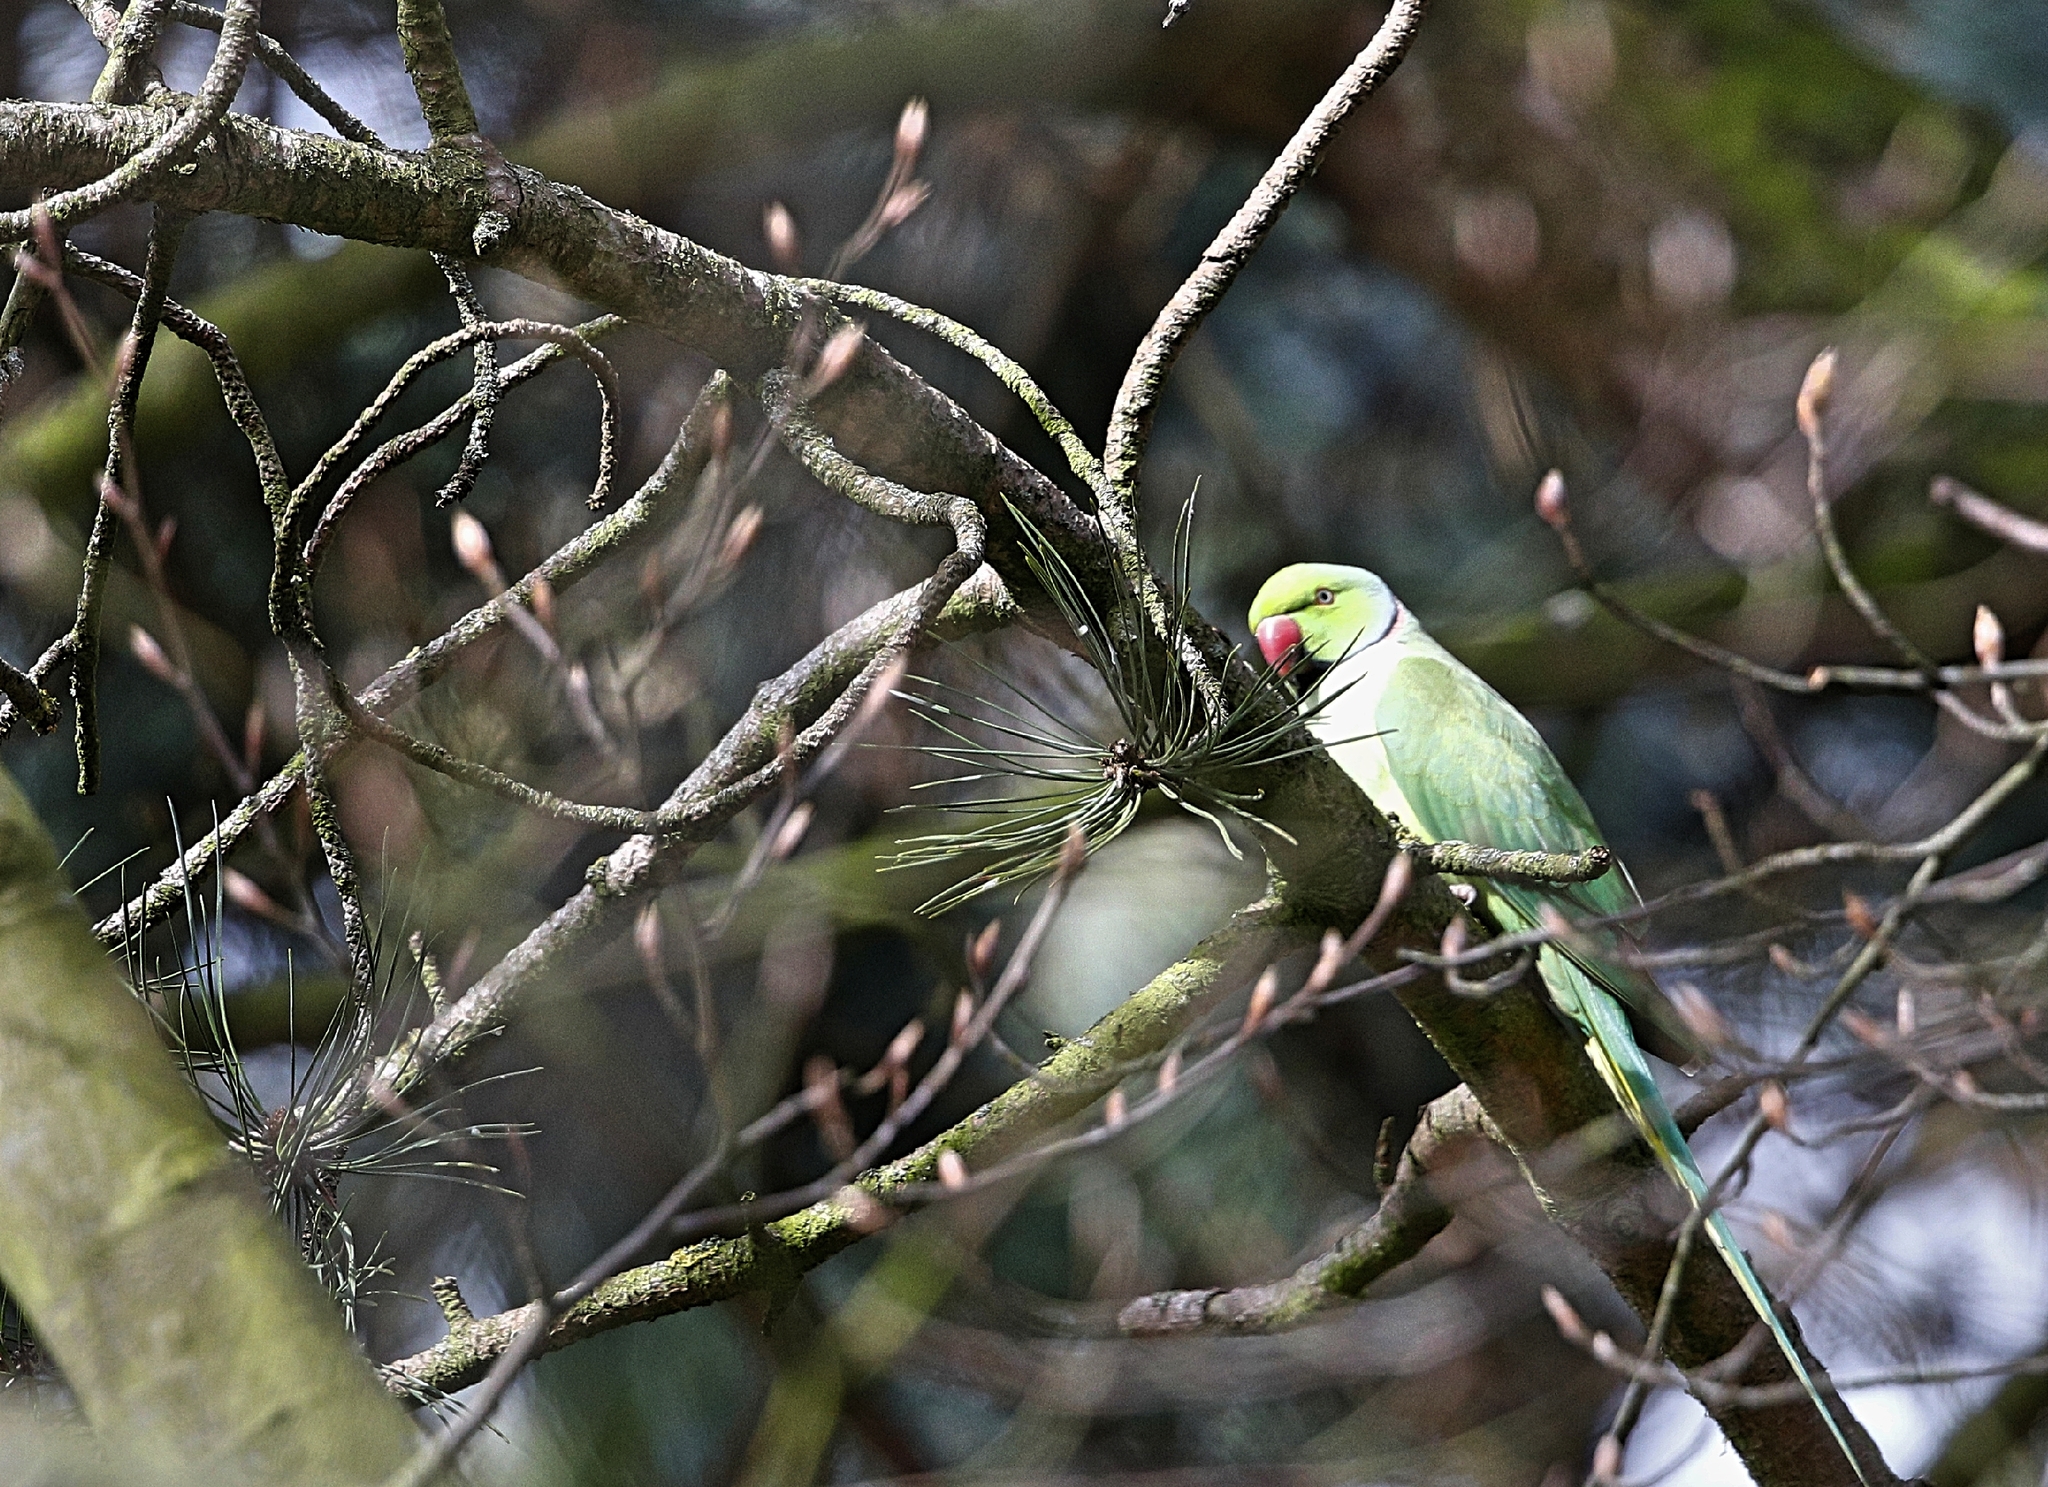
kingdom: Animalia
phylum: Chordata
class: Aves
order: Psittaciformes
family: Psittacidae
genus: Psittacula
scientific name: Psittacula krameri
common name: Rose-ringed parakeet
